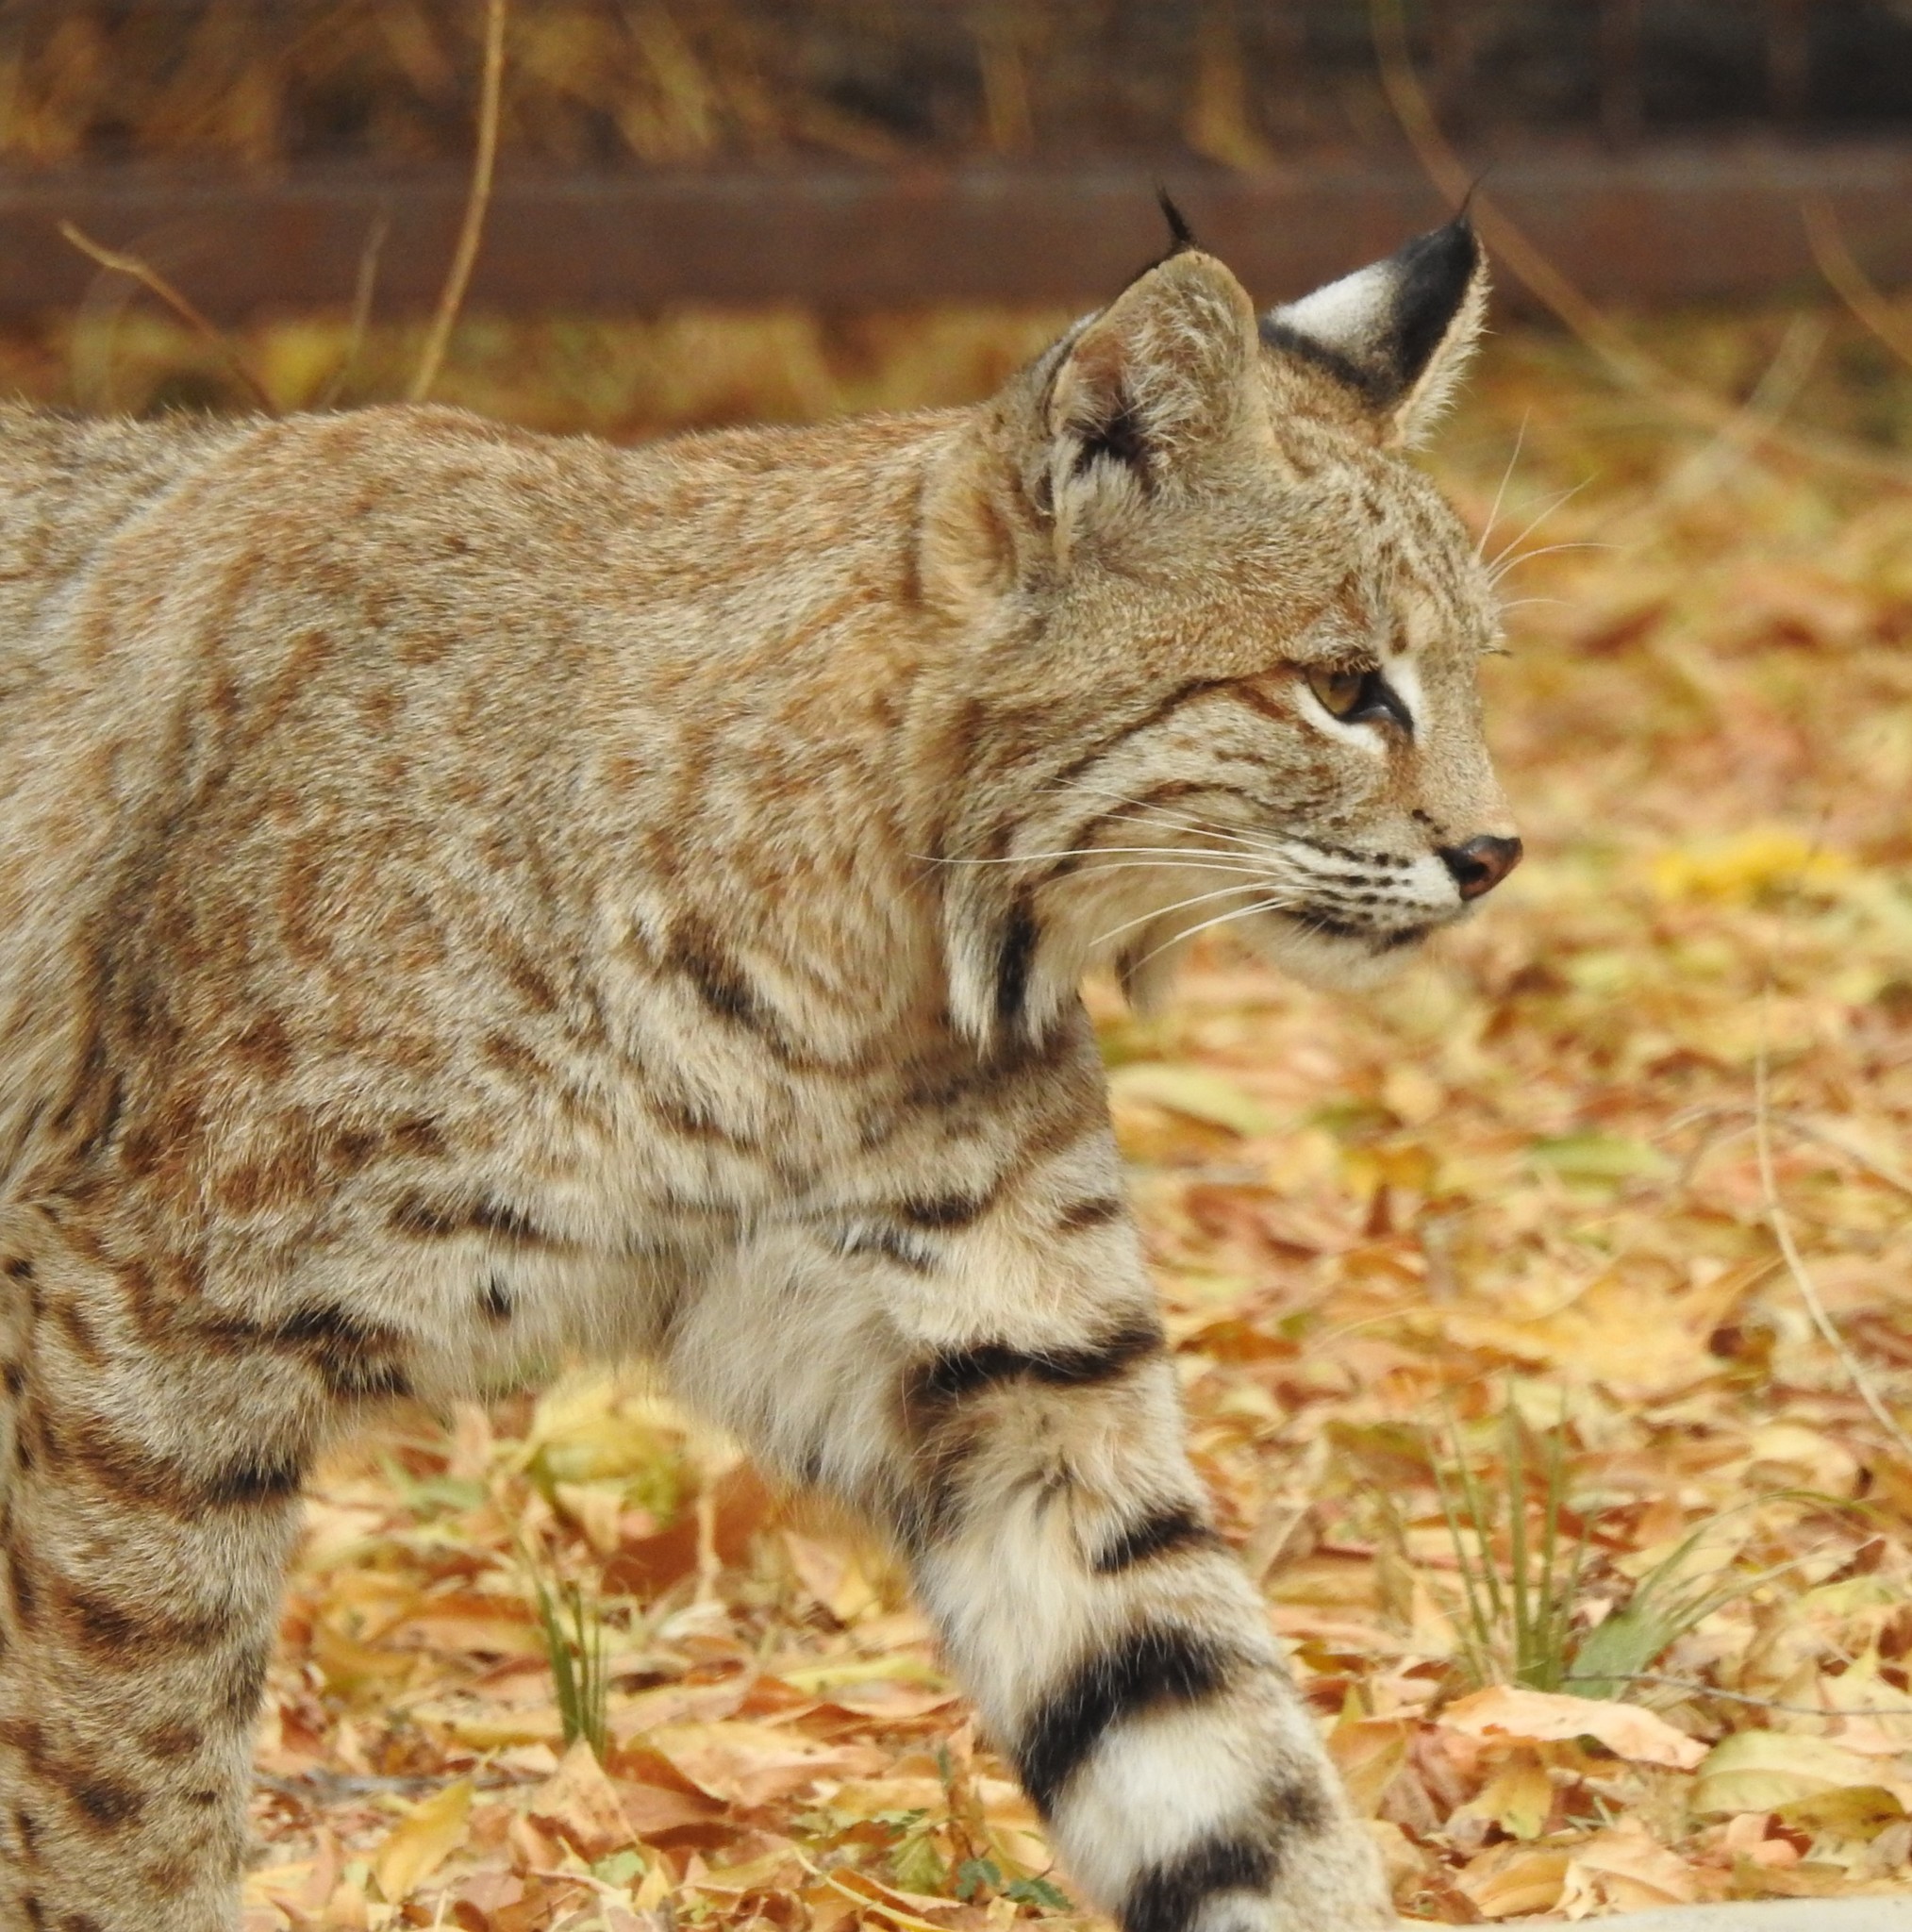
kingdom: Animalia
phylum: Chordata
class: Mammalia
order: Carnivora
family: Felidae
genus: Lynx
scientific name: Lynx rufus
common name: Bobcat
